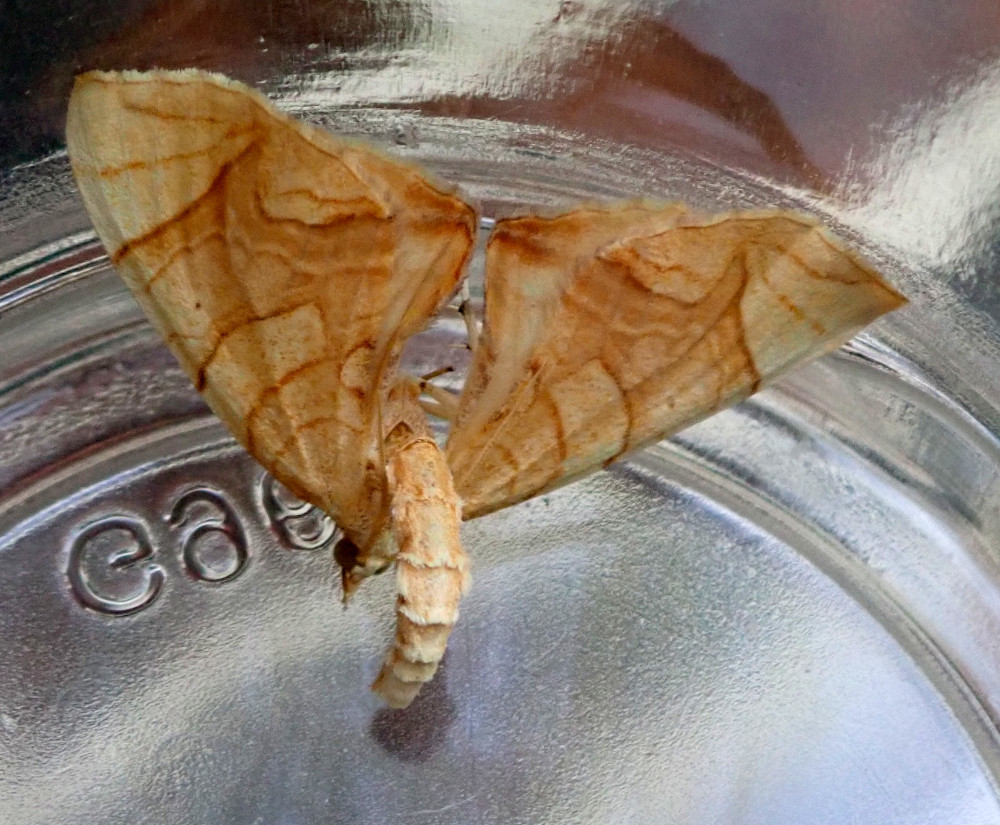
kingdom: Animalia
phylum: Arthropoda
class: Insecta
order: Lepidoptera
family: Geometridae
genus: Eulithis
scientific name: Eulithis
